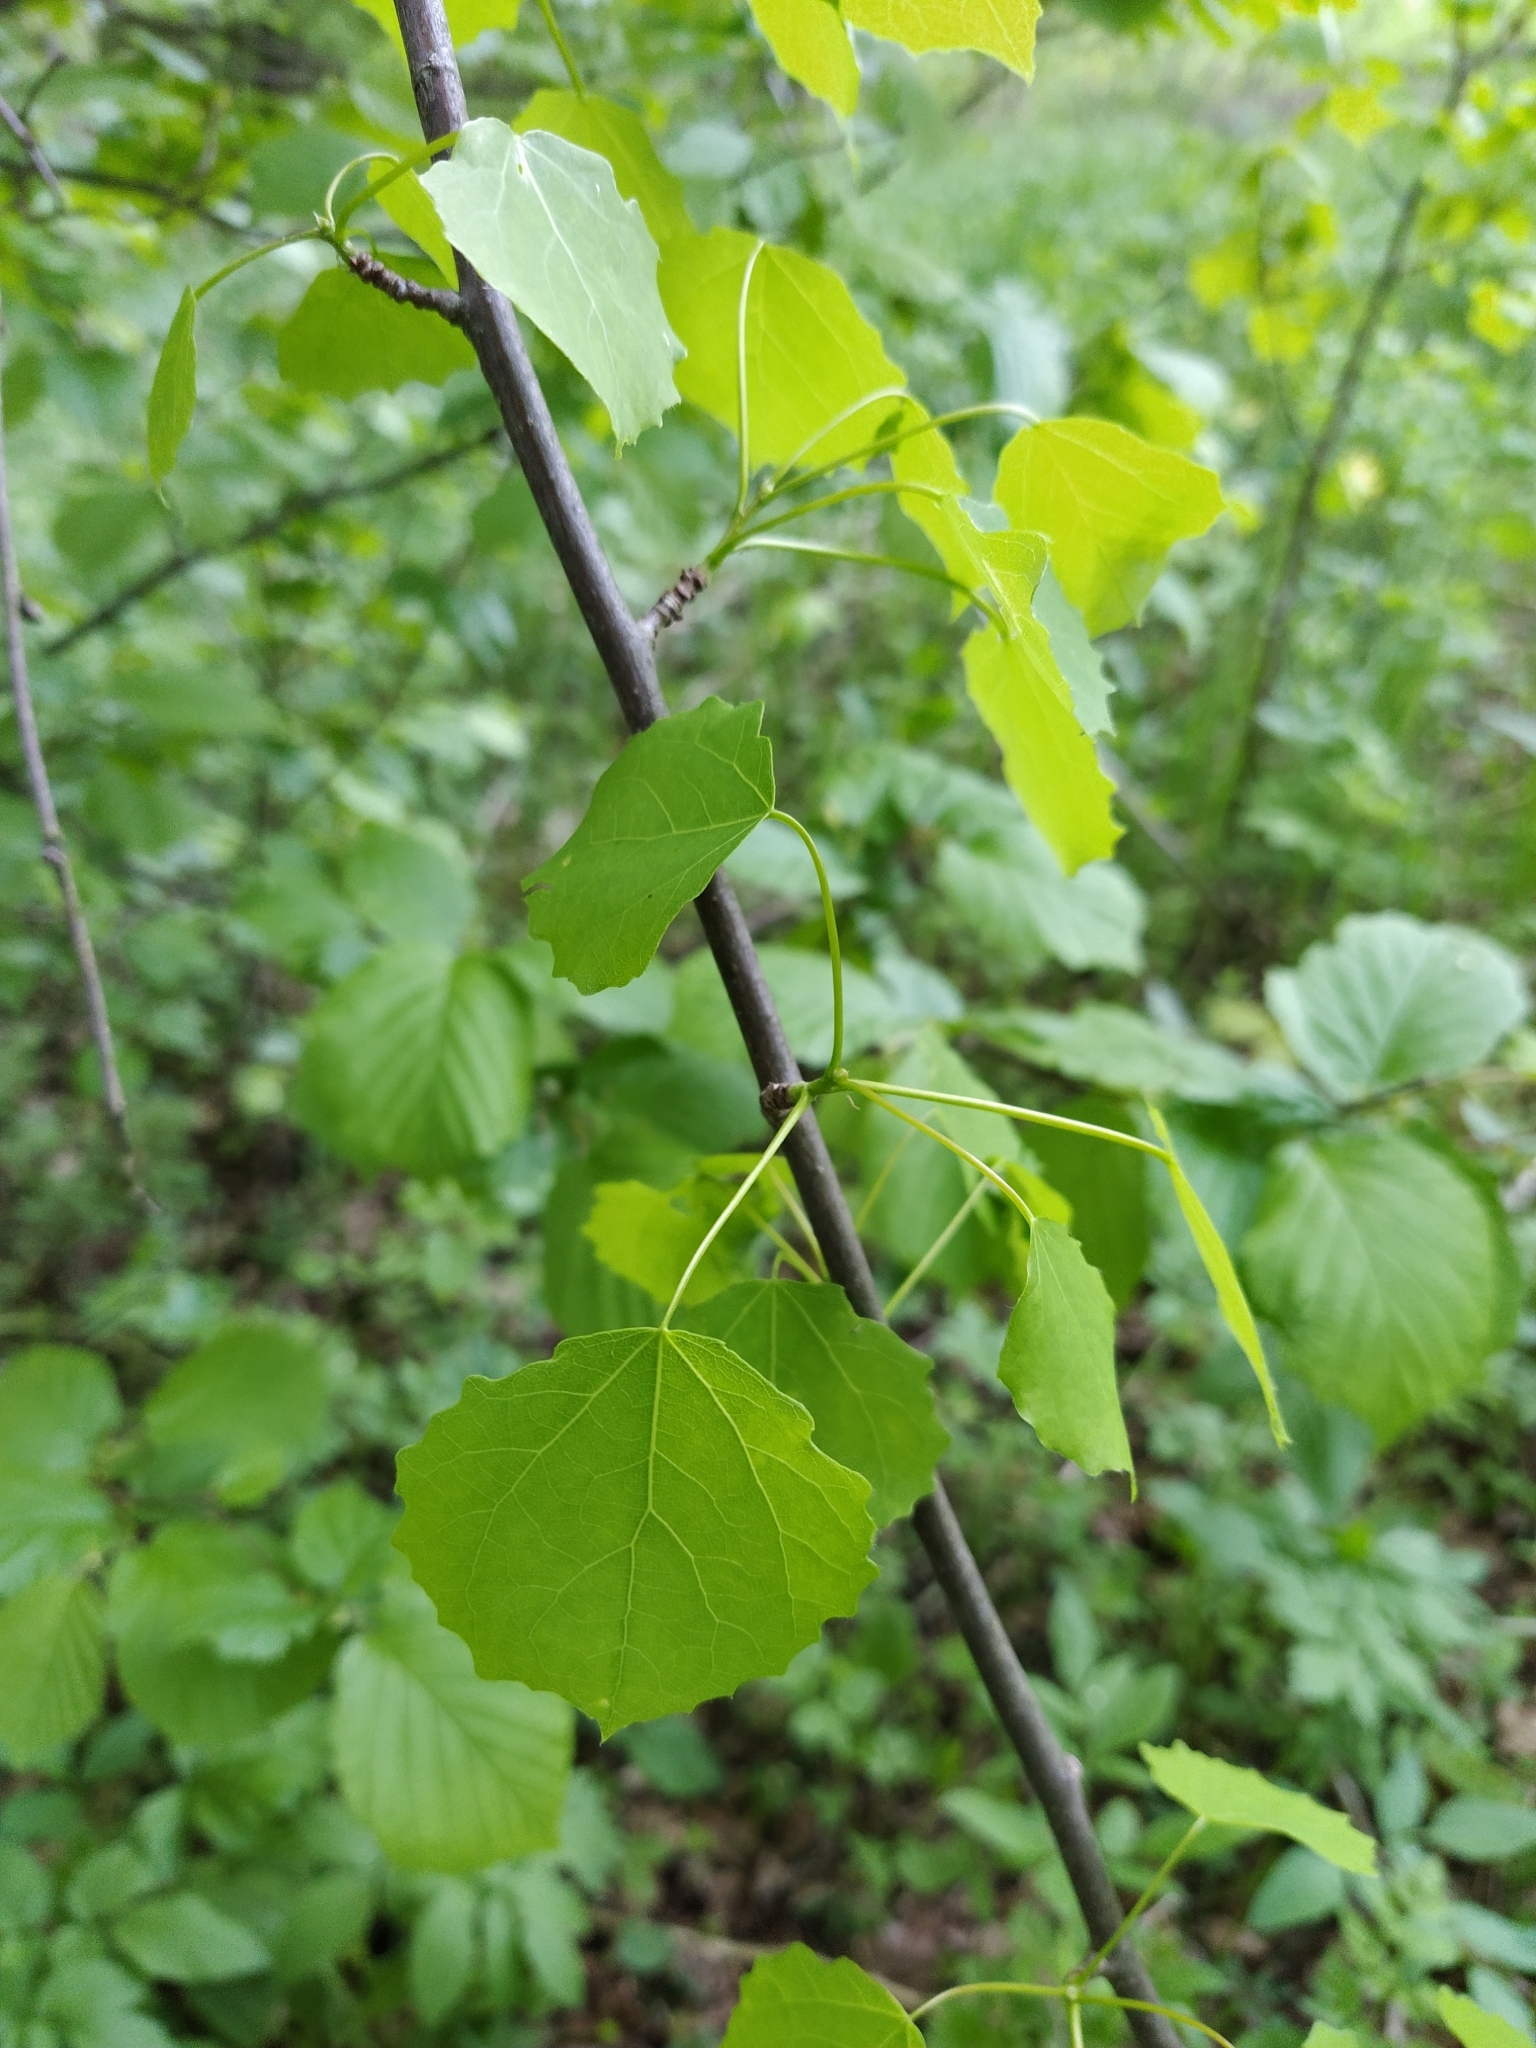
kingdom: Plantae
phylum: Tracheophyta
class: Magnoliopsida
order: Malpighiales
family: Salicaceae
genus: Populus
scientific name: Populus tremula
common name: European aspen
